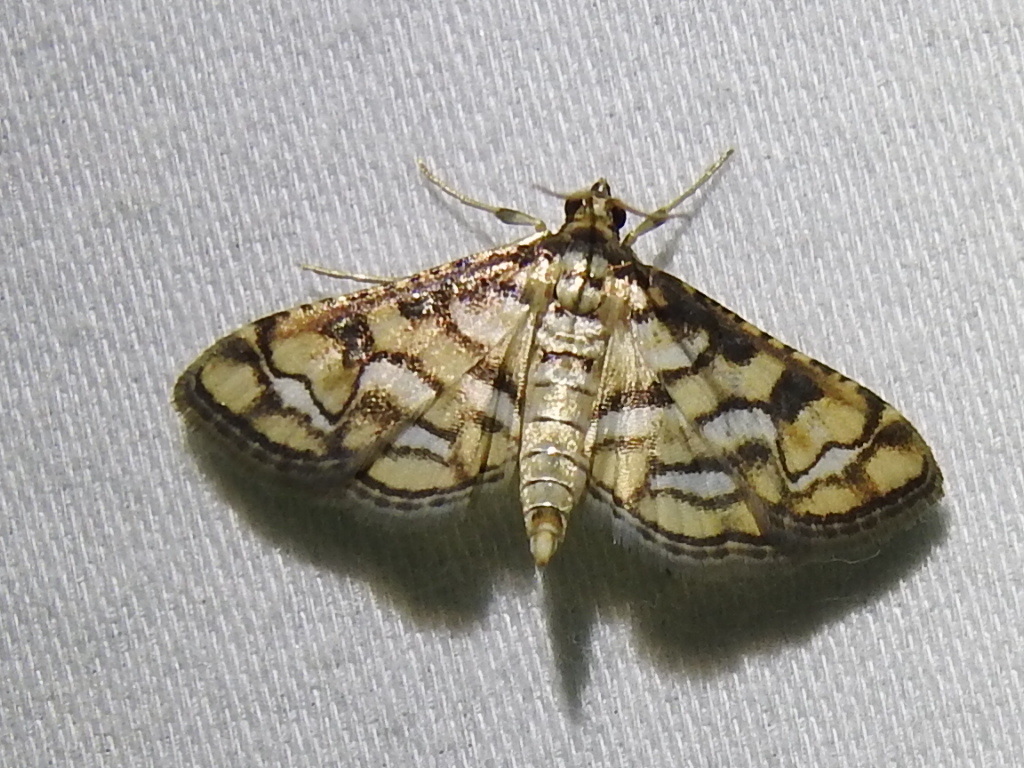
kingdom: Animalia
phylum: Arthropoda
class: Insecta
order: Lepidoptera
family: Crambidae
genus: Hileithia
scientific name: Hileithia magualis
